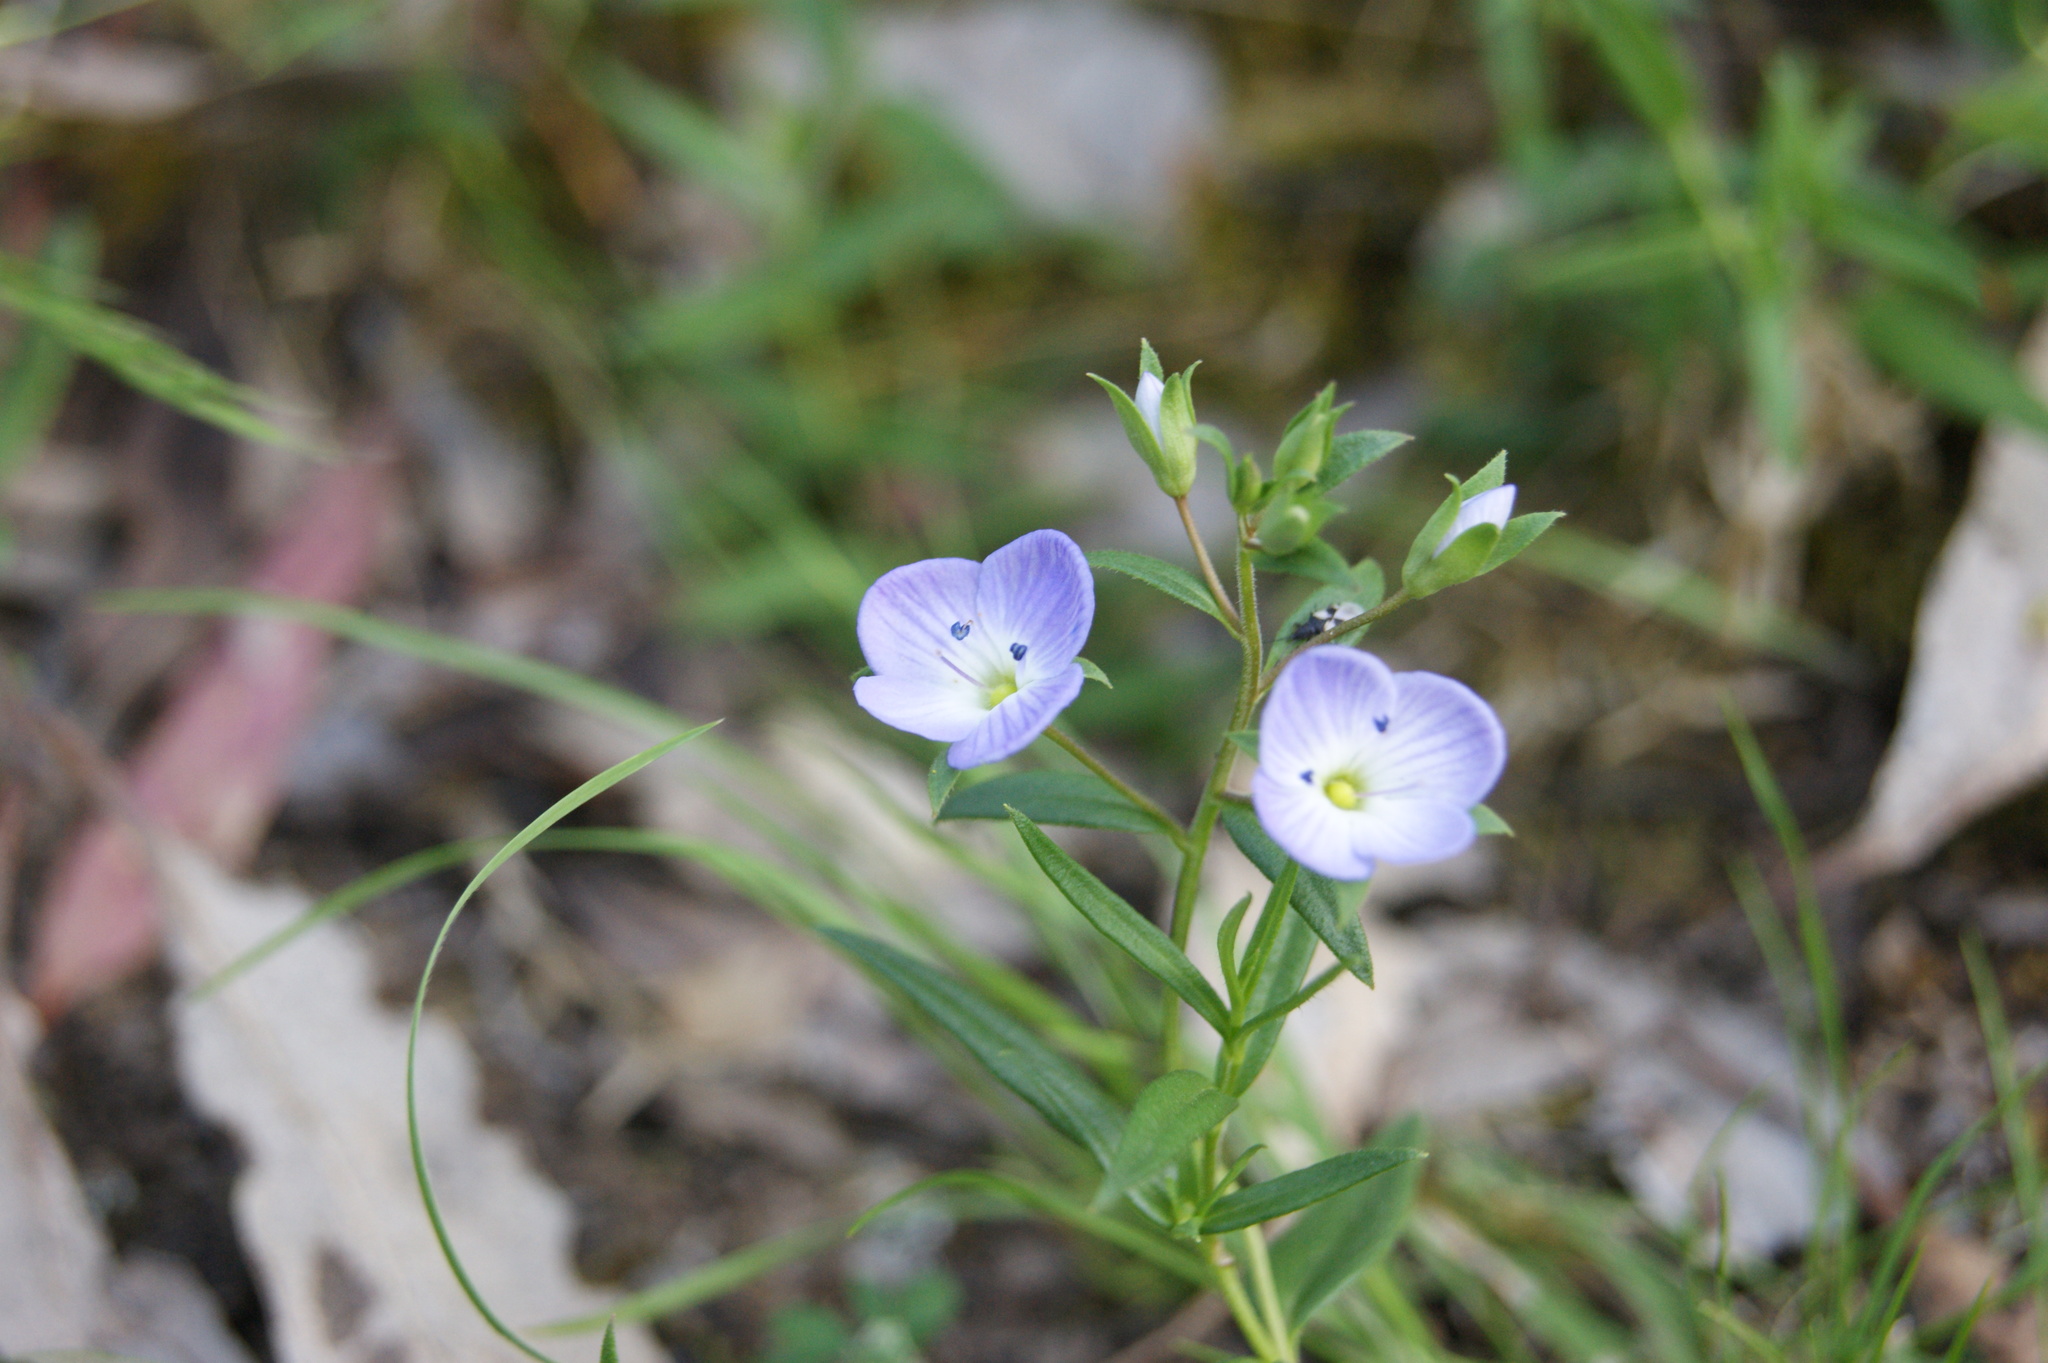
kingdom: Plantae
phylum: Tracheophyta
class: Magnoliopsida
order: Lamiales
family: Plantaginaceae
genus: Veronica
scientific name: Veronica gracilis
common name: Slender speedwell
